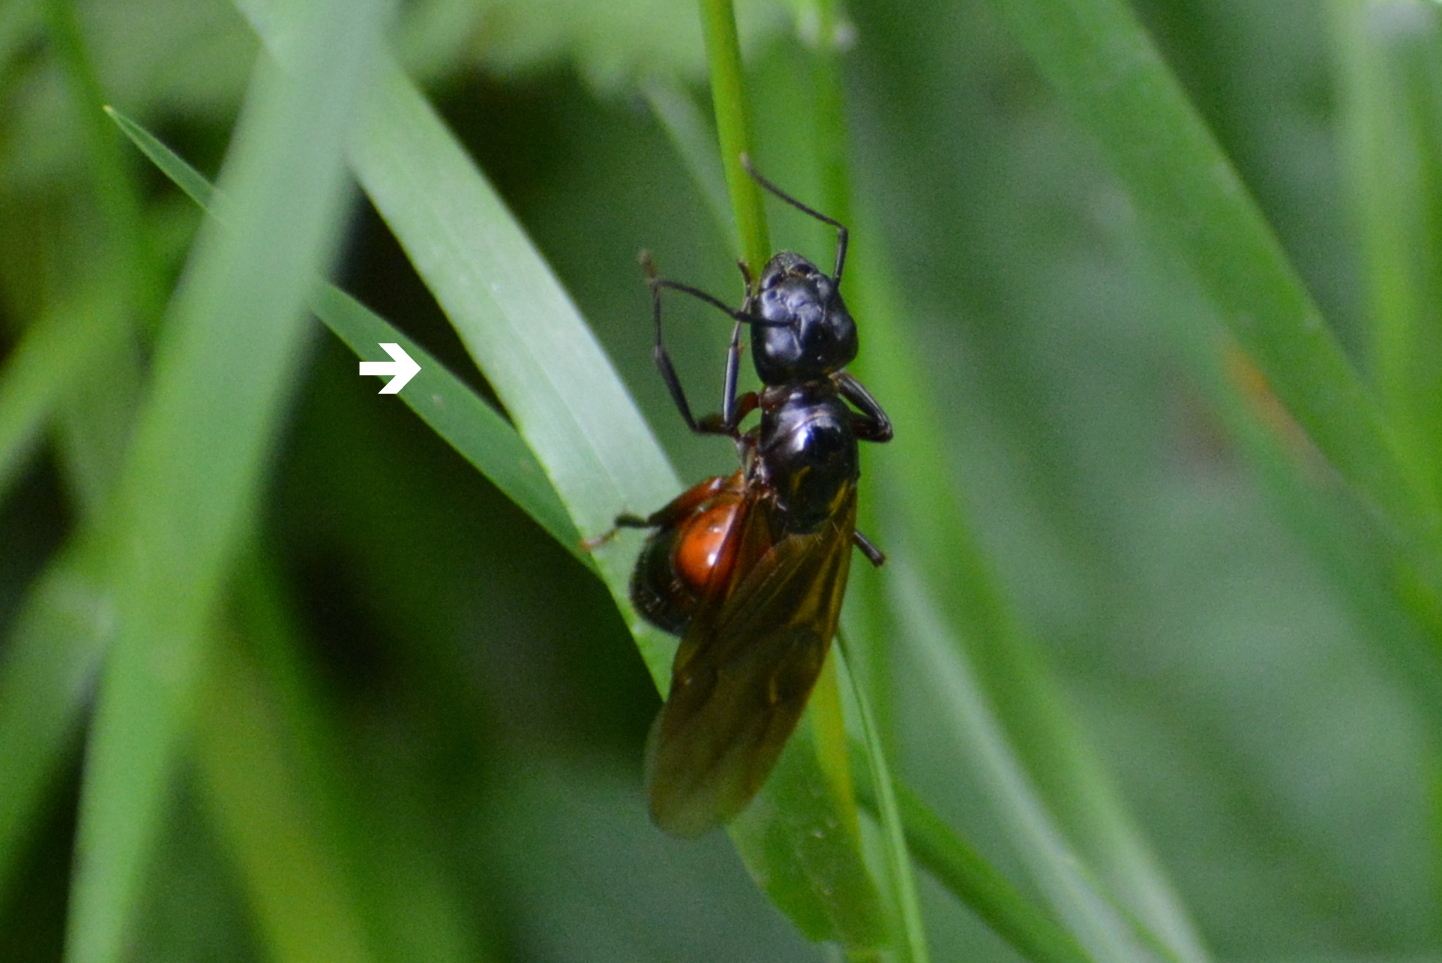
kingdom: Animalia
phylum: Arthropoda
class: Insecta
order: Hymenoptera
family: Formicidae
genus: Camponotus
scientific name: Camponotus ligniperdus
